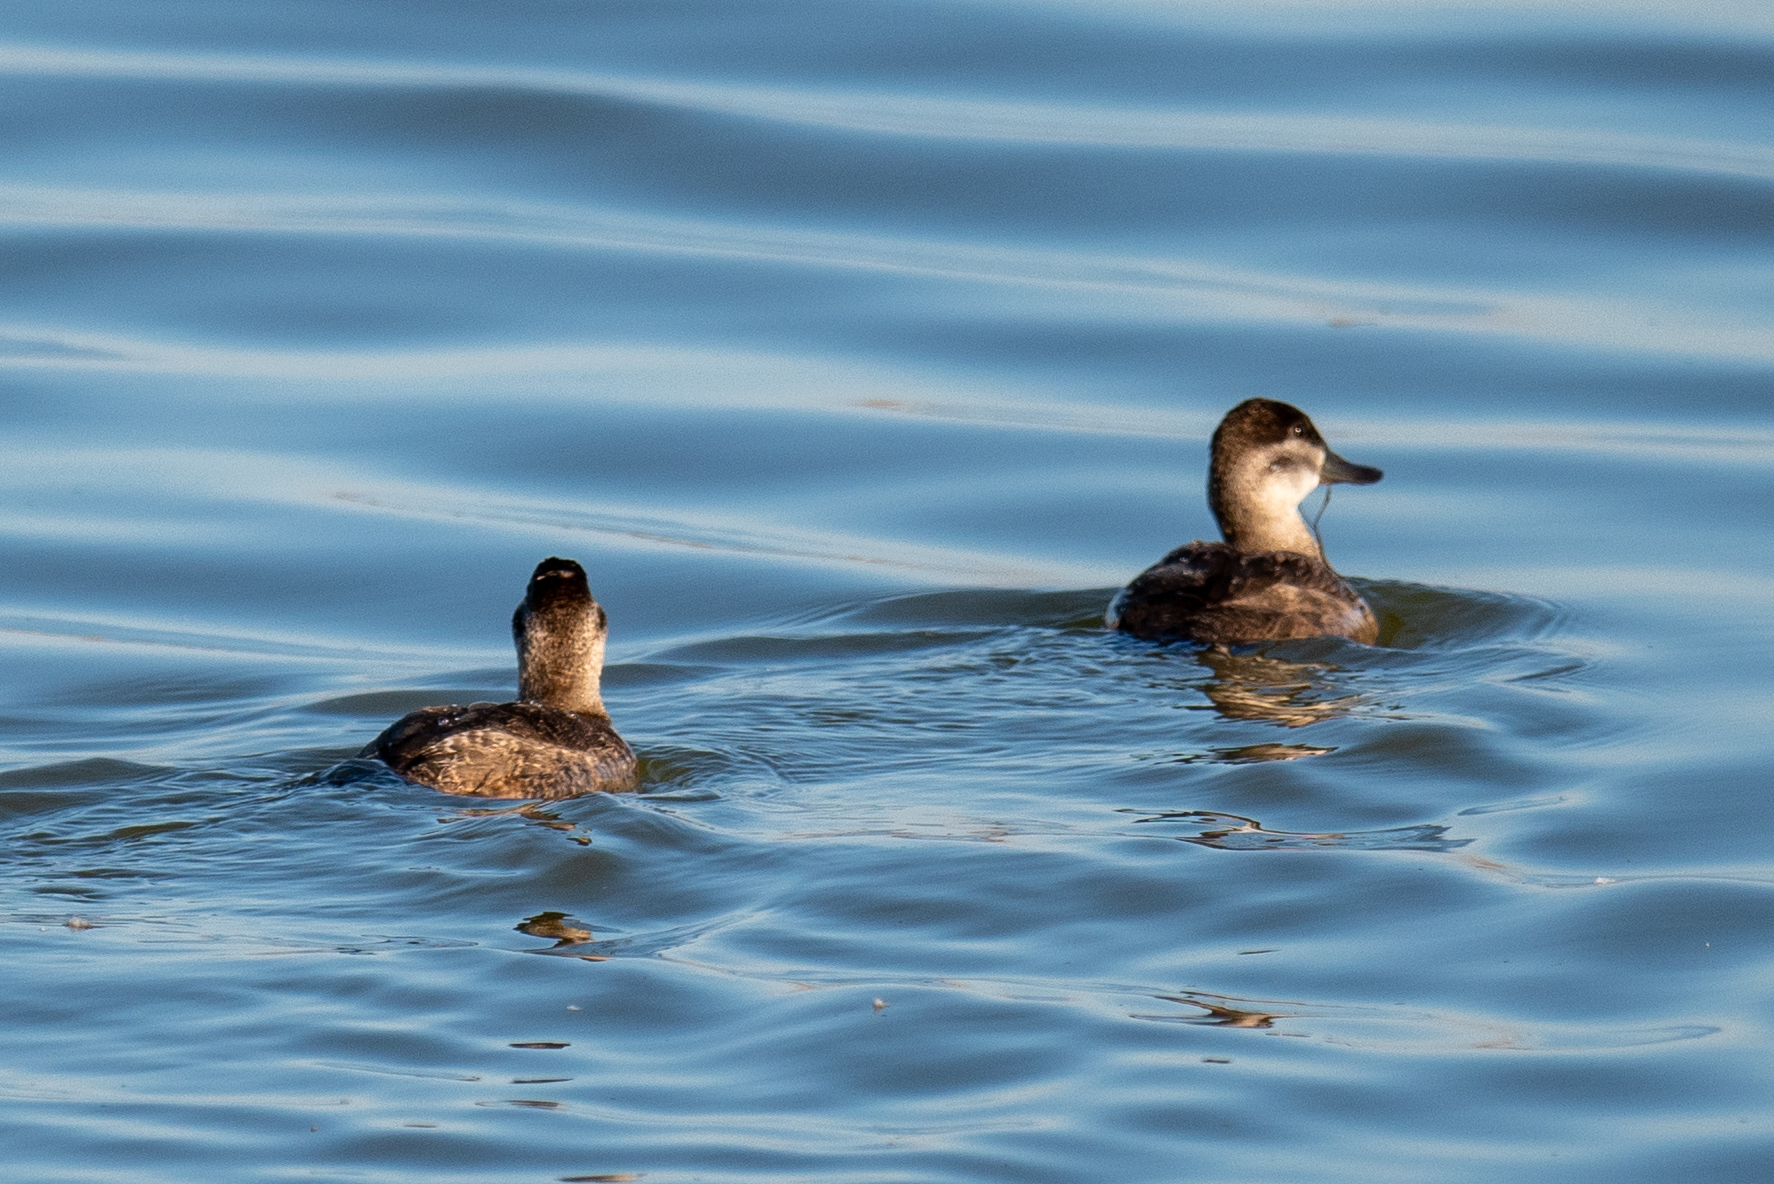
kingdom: Animalia
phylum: Chordata
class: Aves
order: Anseriformes
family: Anatidae
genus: Oxyura
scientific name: Oxyura jamaicensis
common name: Ruddy duck
